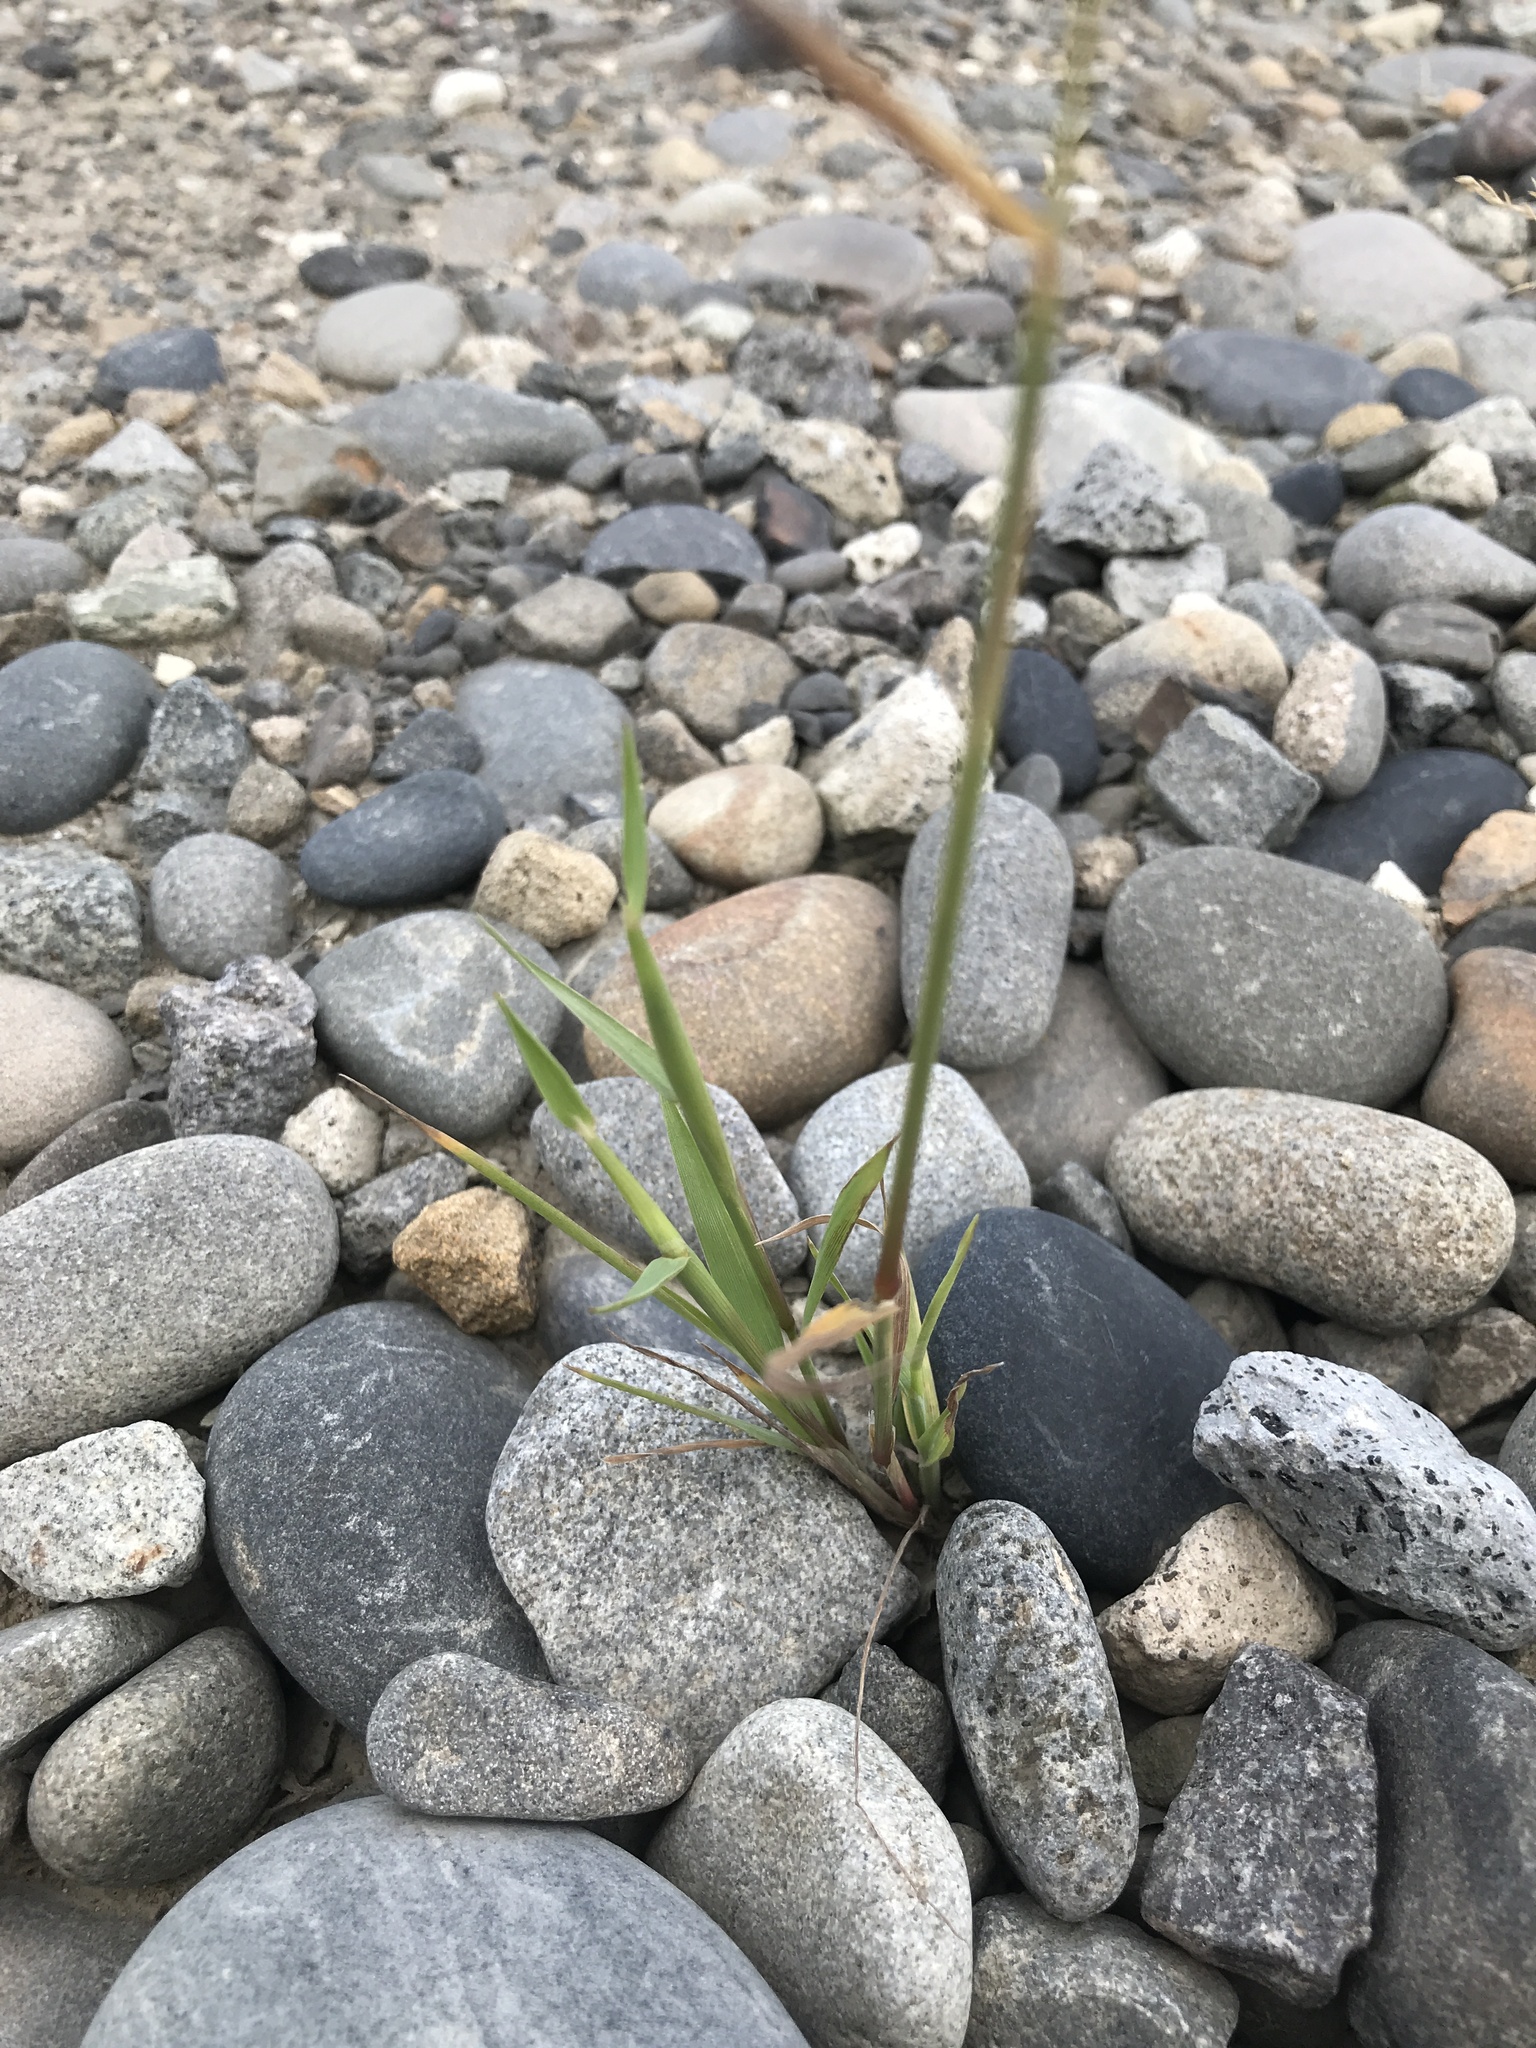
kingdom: Plantae
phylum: Tracheophyta
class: Liliopsida
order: Poales
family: Poaceae
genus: Polypogon
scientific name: Polypogon fugax
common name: Asia minor bluegrass
